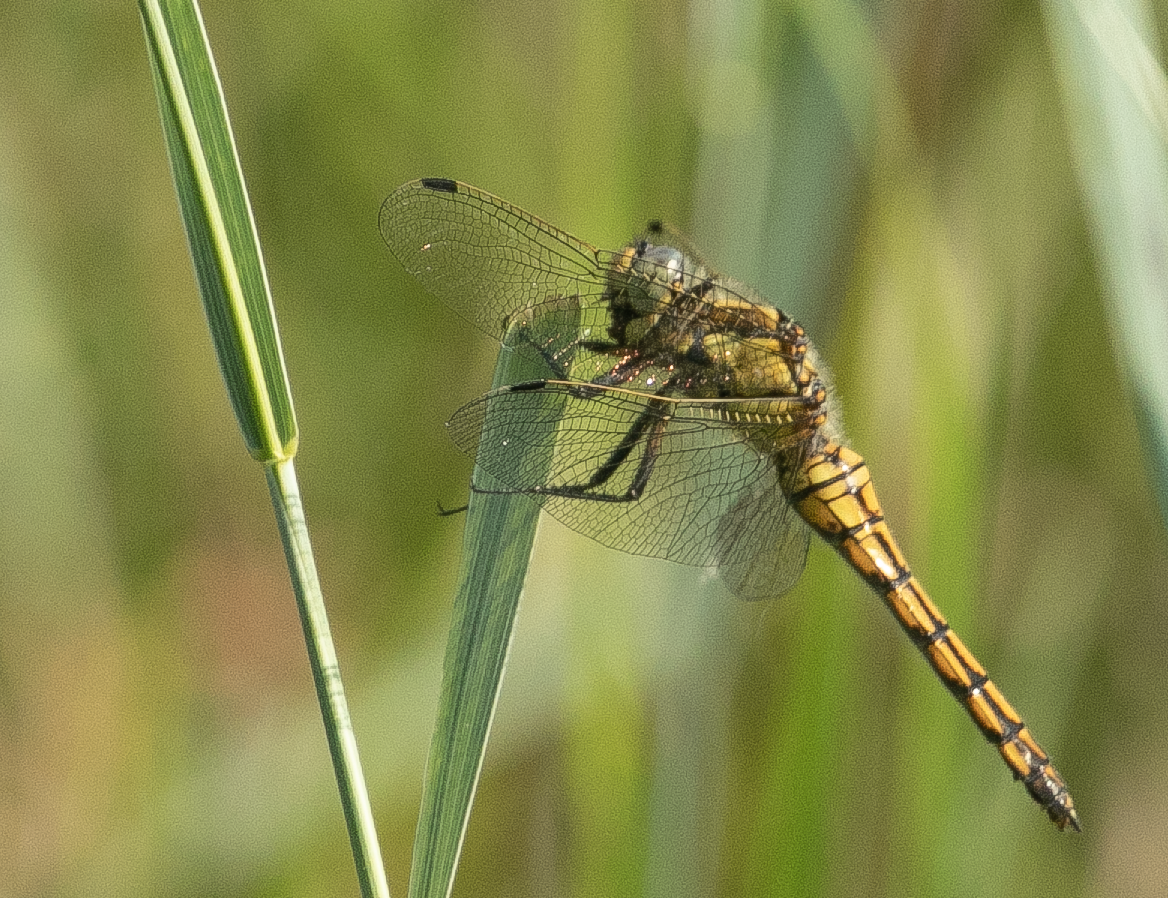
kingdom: Animalia
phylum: Arthropoda
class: Insecta
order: Odonata
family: Libellulidae
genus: Orthetrum
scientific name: Orthetrum cancellatum
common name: Black-tailed skimmer
